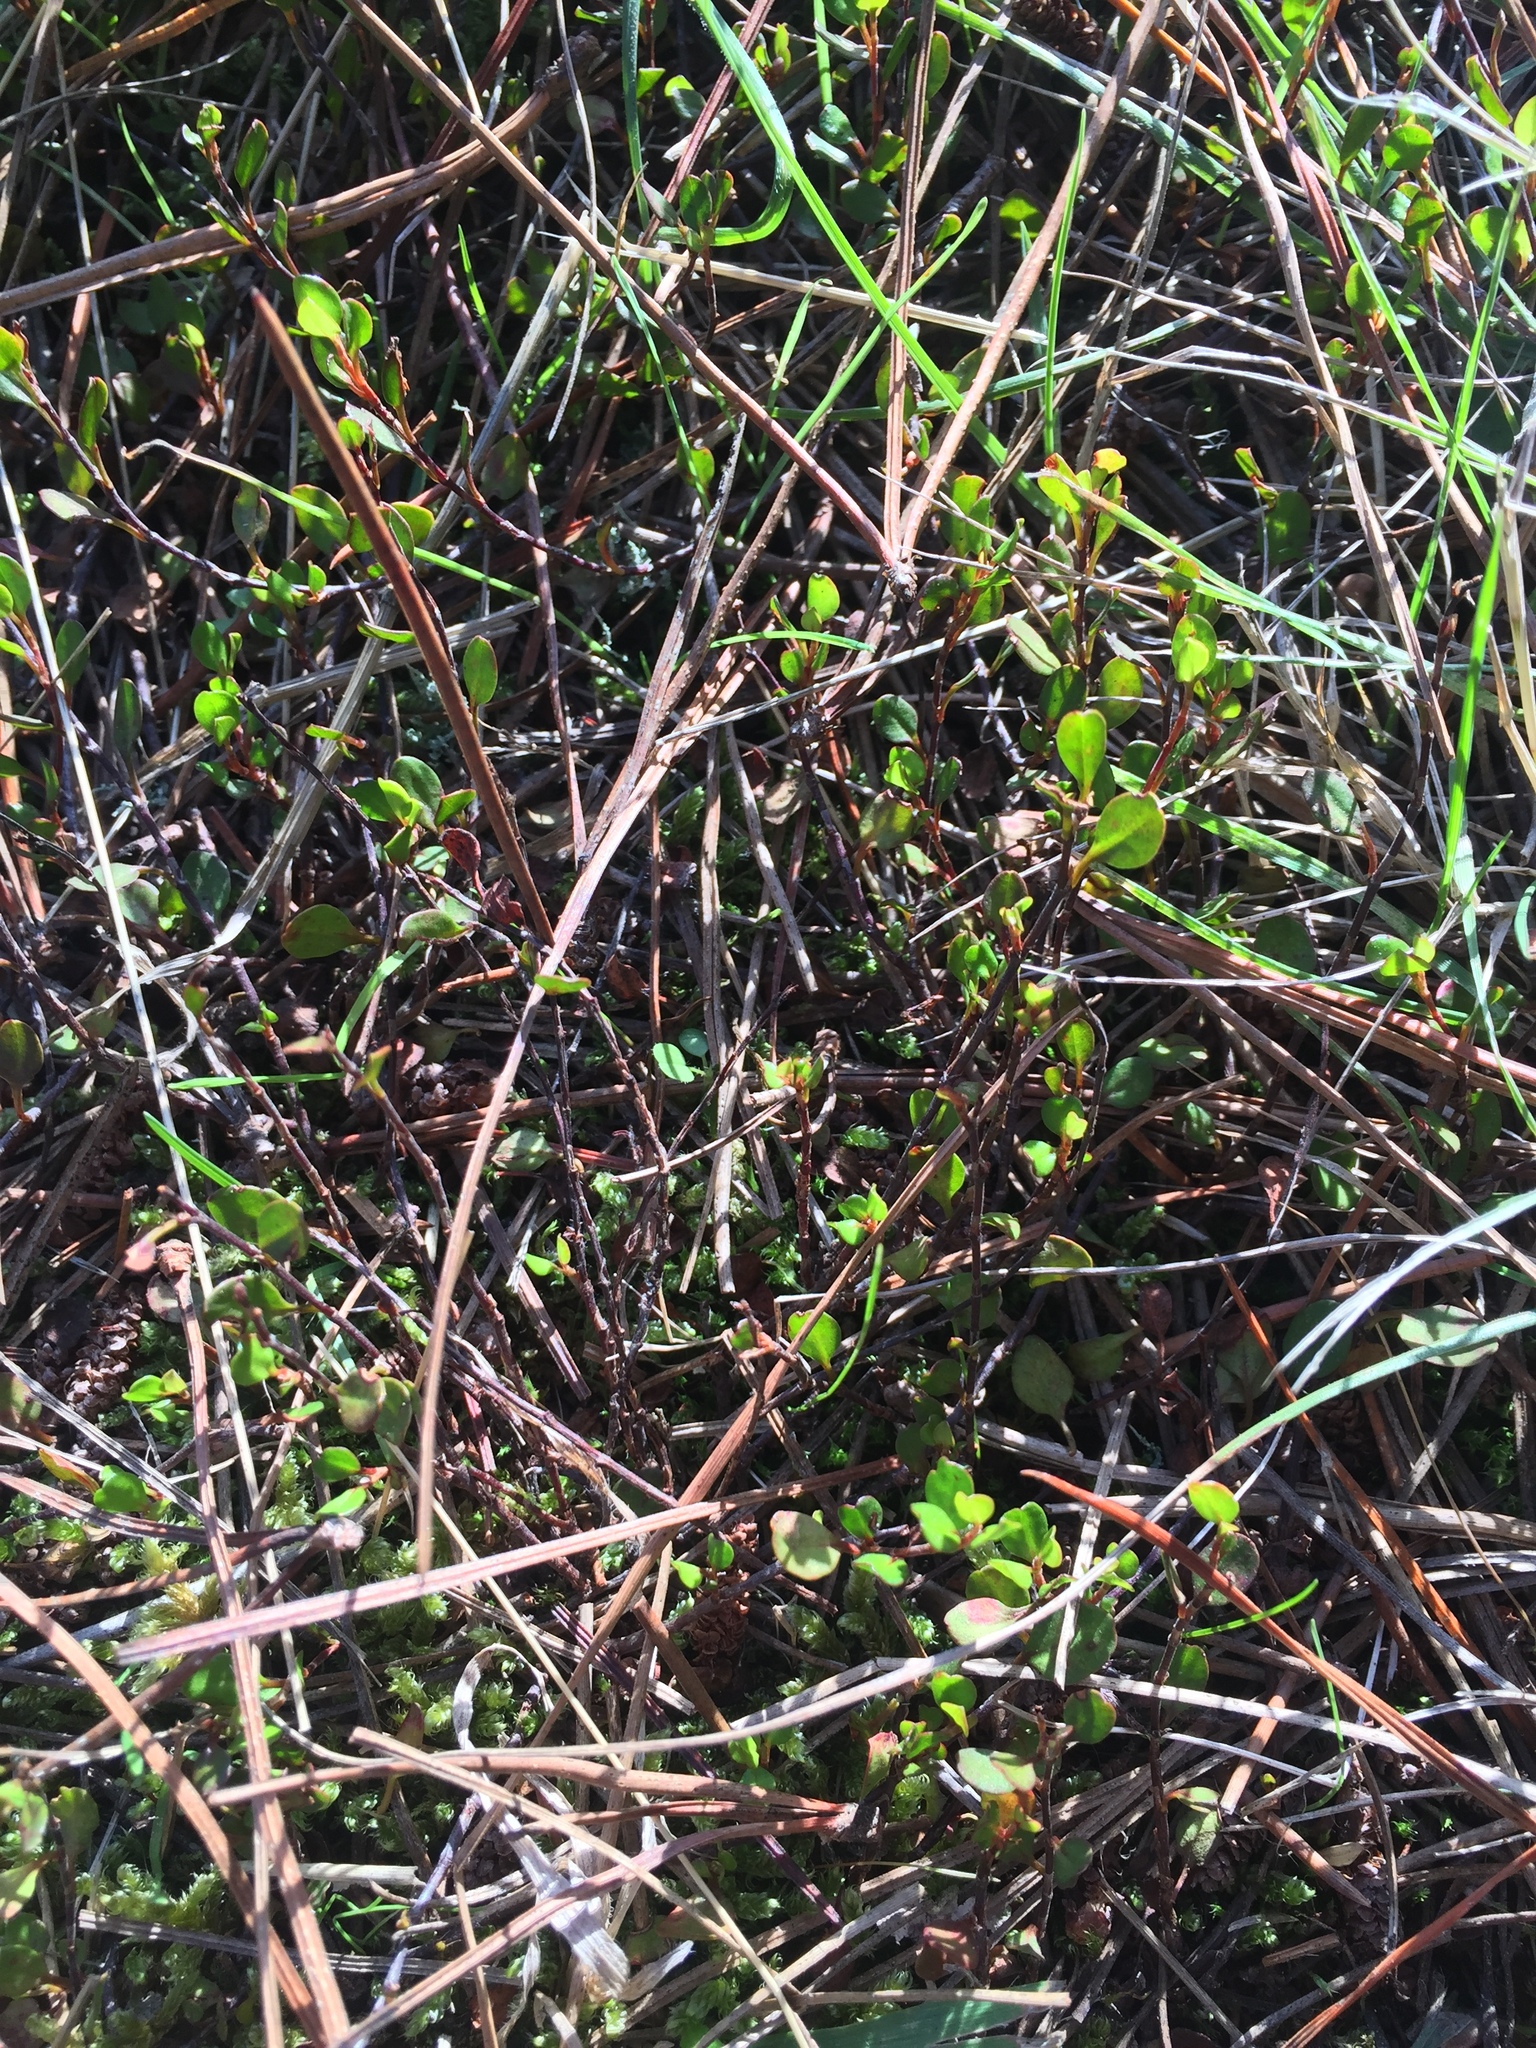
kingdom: Plantae
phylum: Tracheophyta
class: Magnoliopsida
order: Caryophyllales
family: Polygonaceae
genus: Muehlenbeckia
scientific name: Muehlenbeckia axillaris
